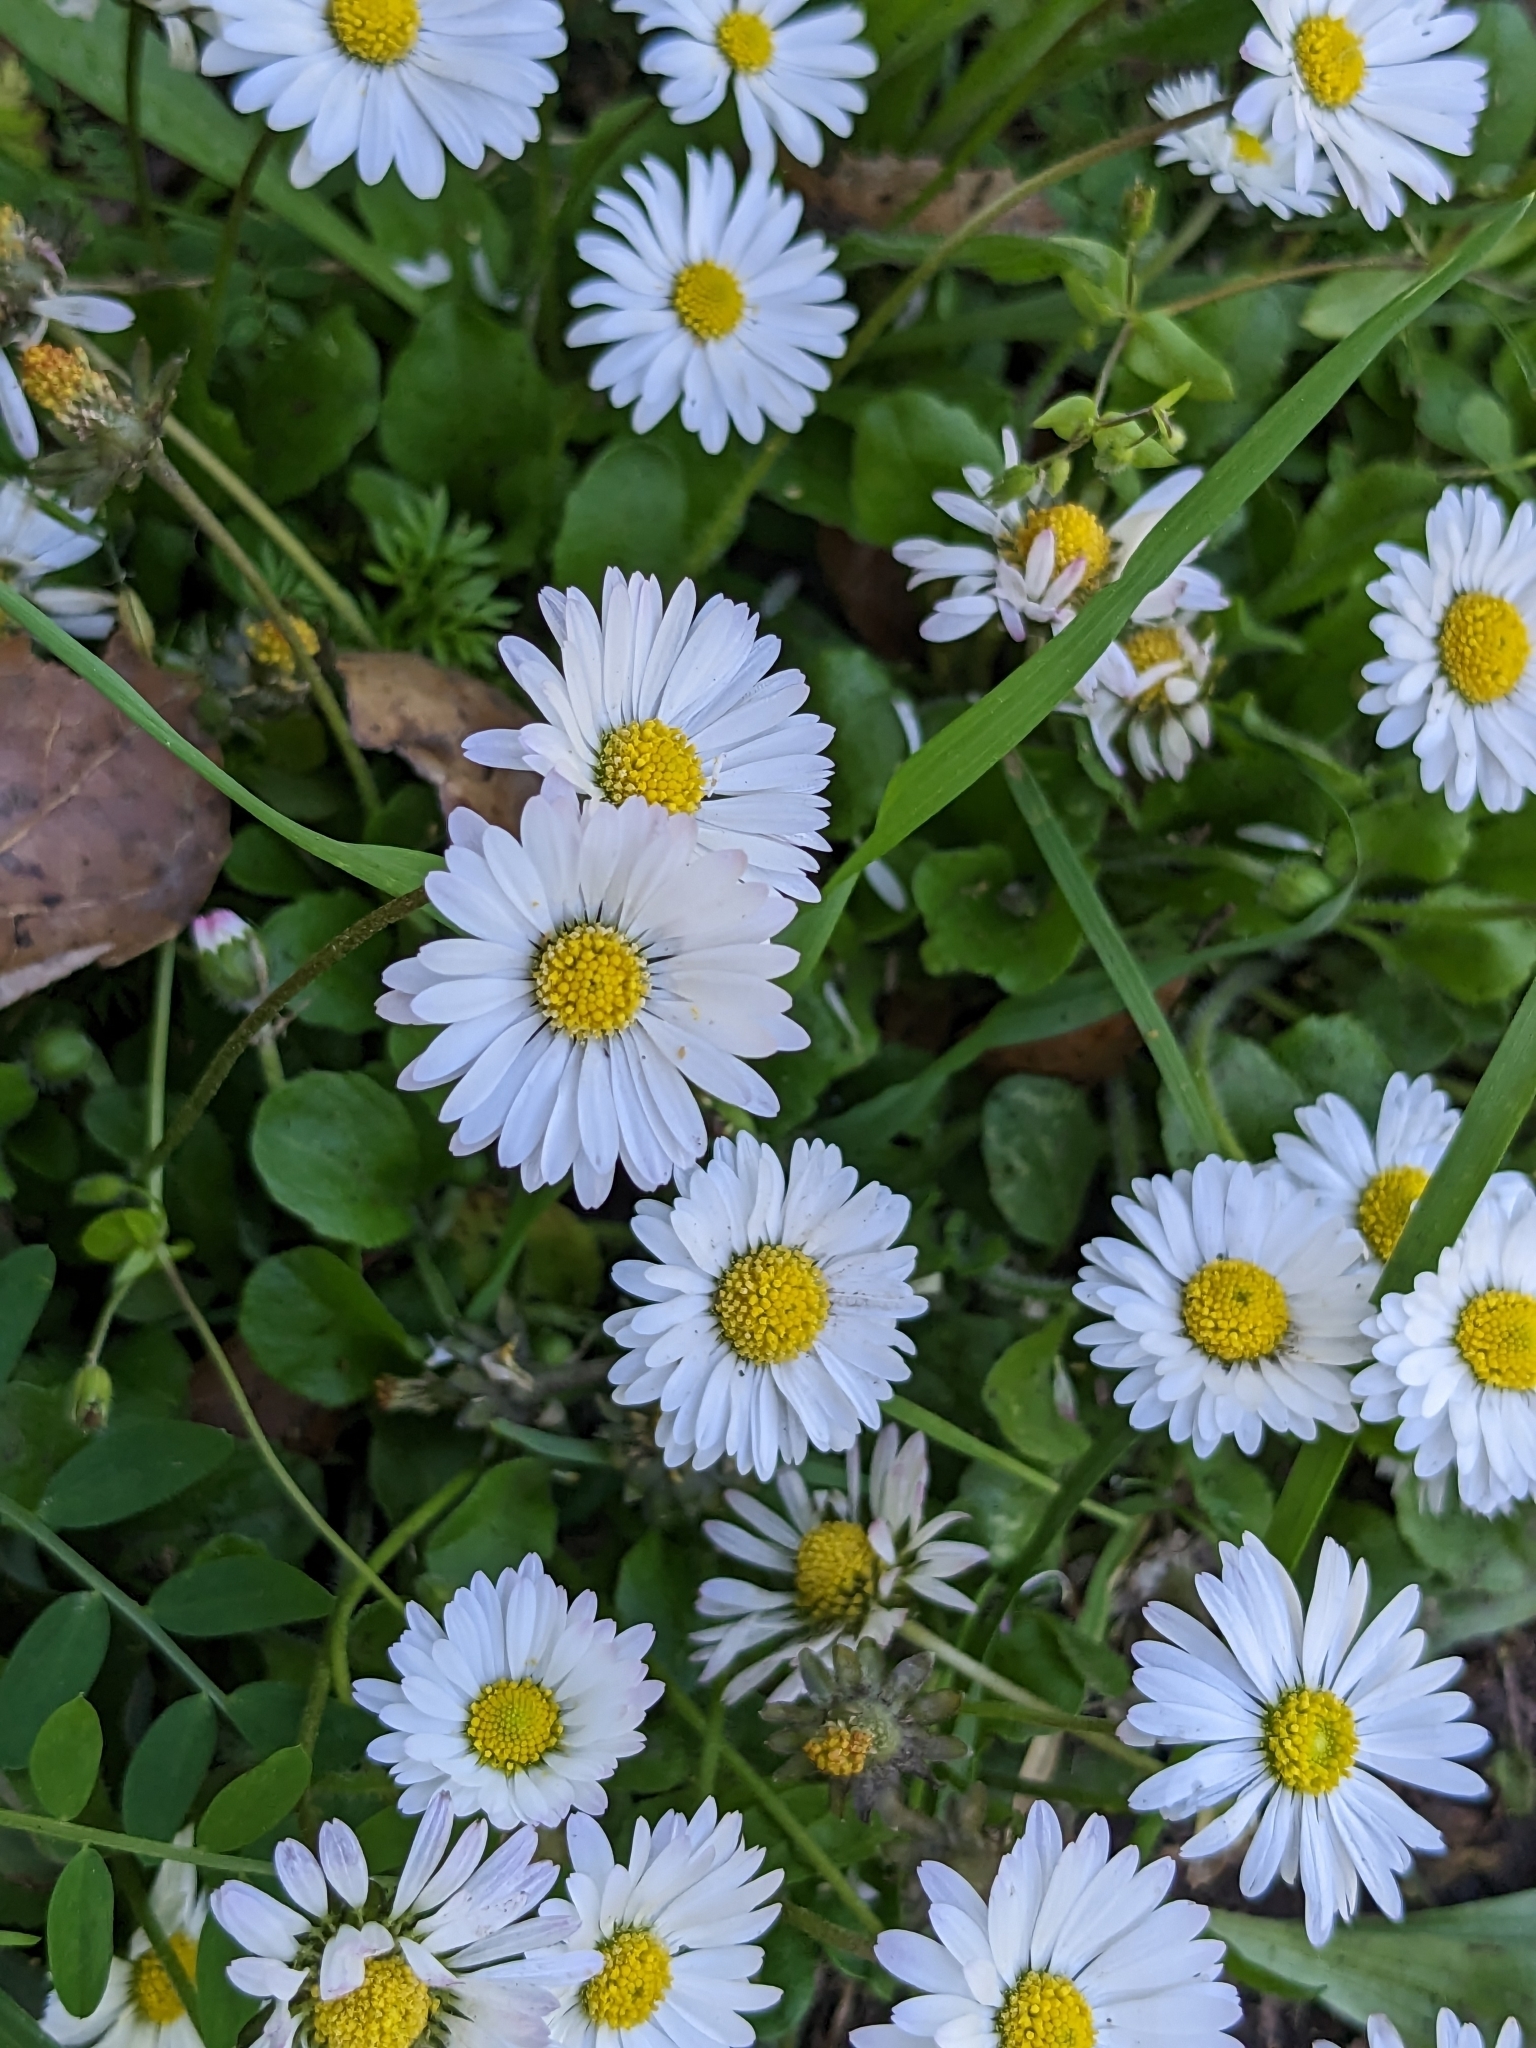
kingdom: Plantae
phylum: Tracheophyta
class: Magnoliopsida
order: Asterales
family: Asteraceae
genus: Bellis
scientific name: Bellis perennis
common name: Lawndaisy
